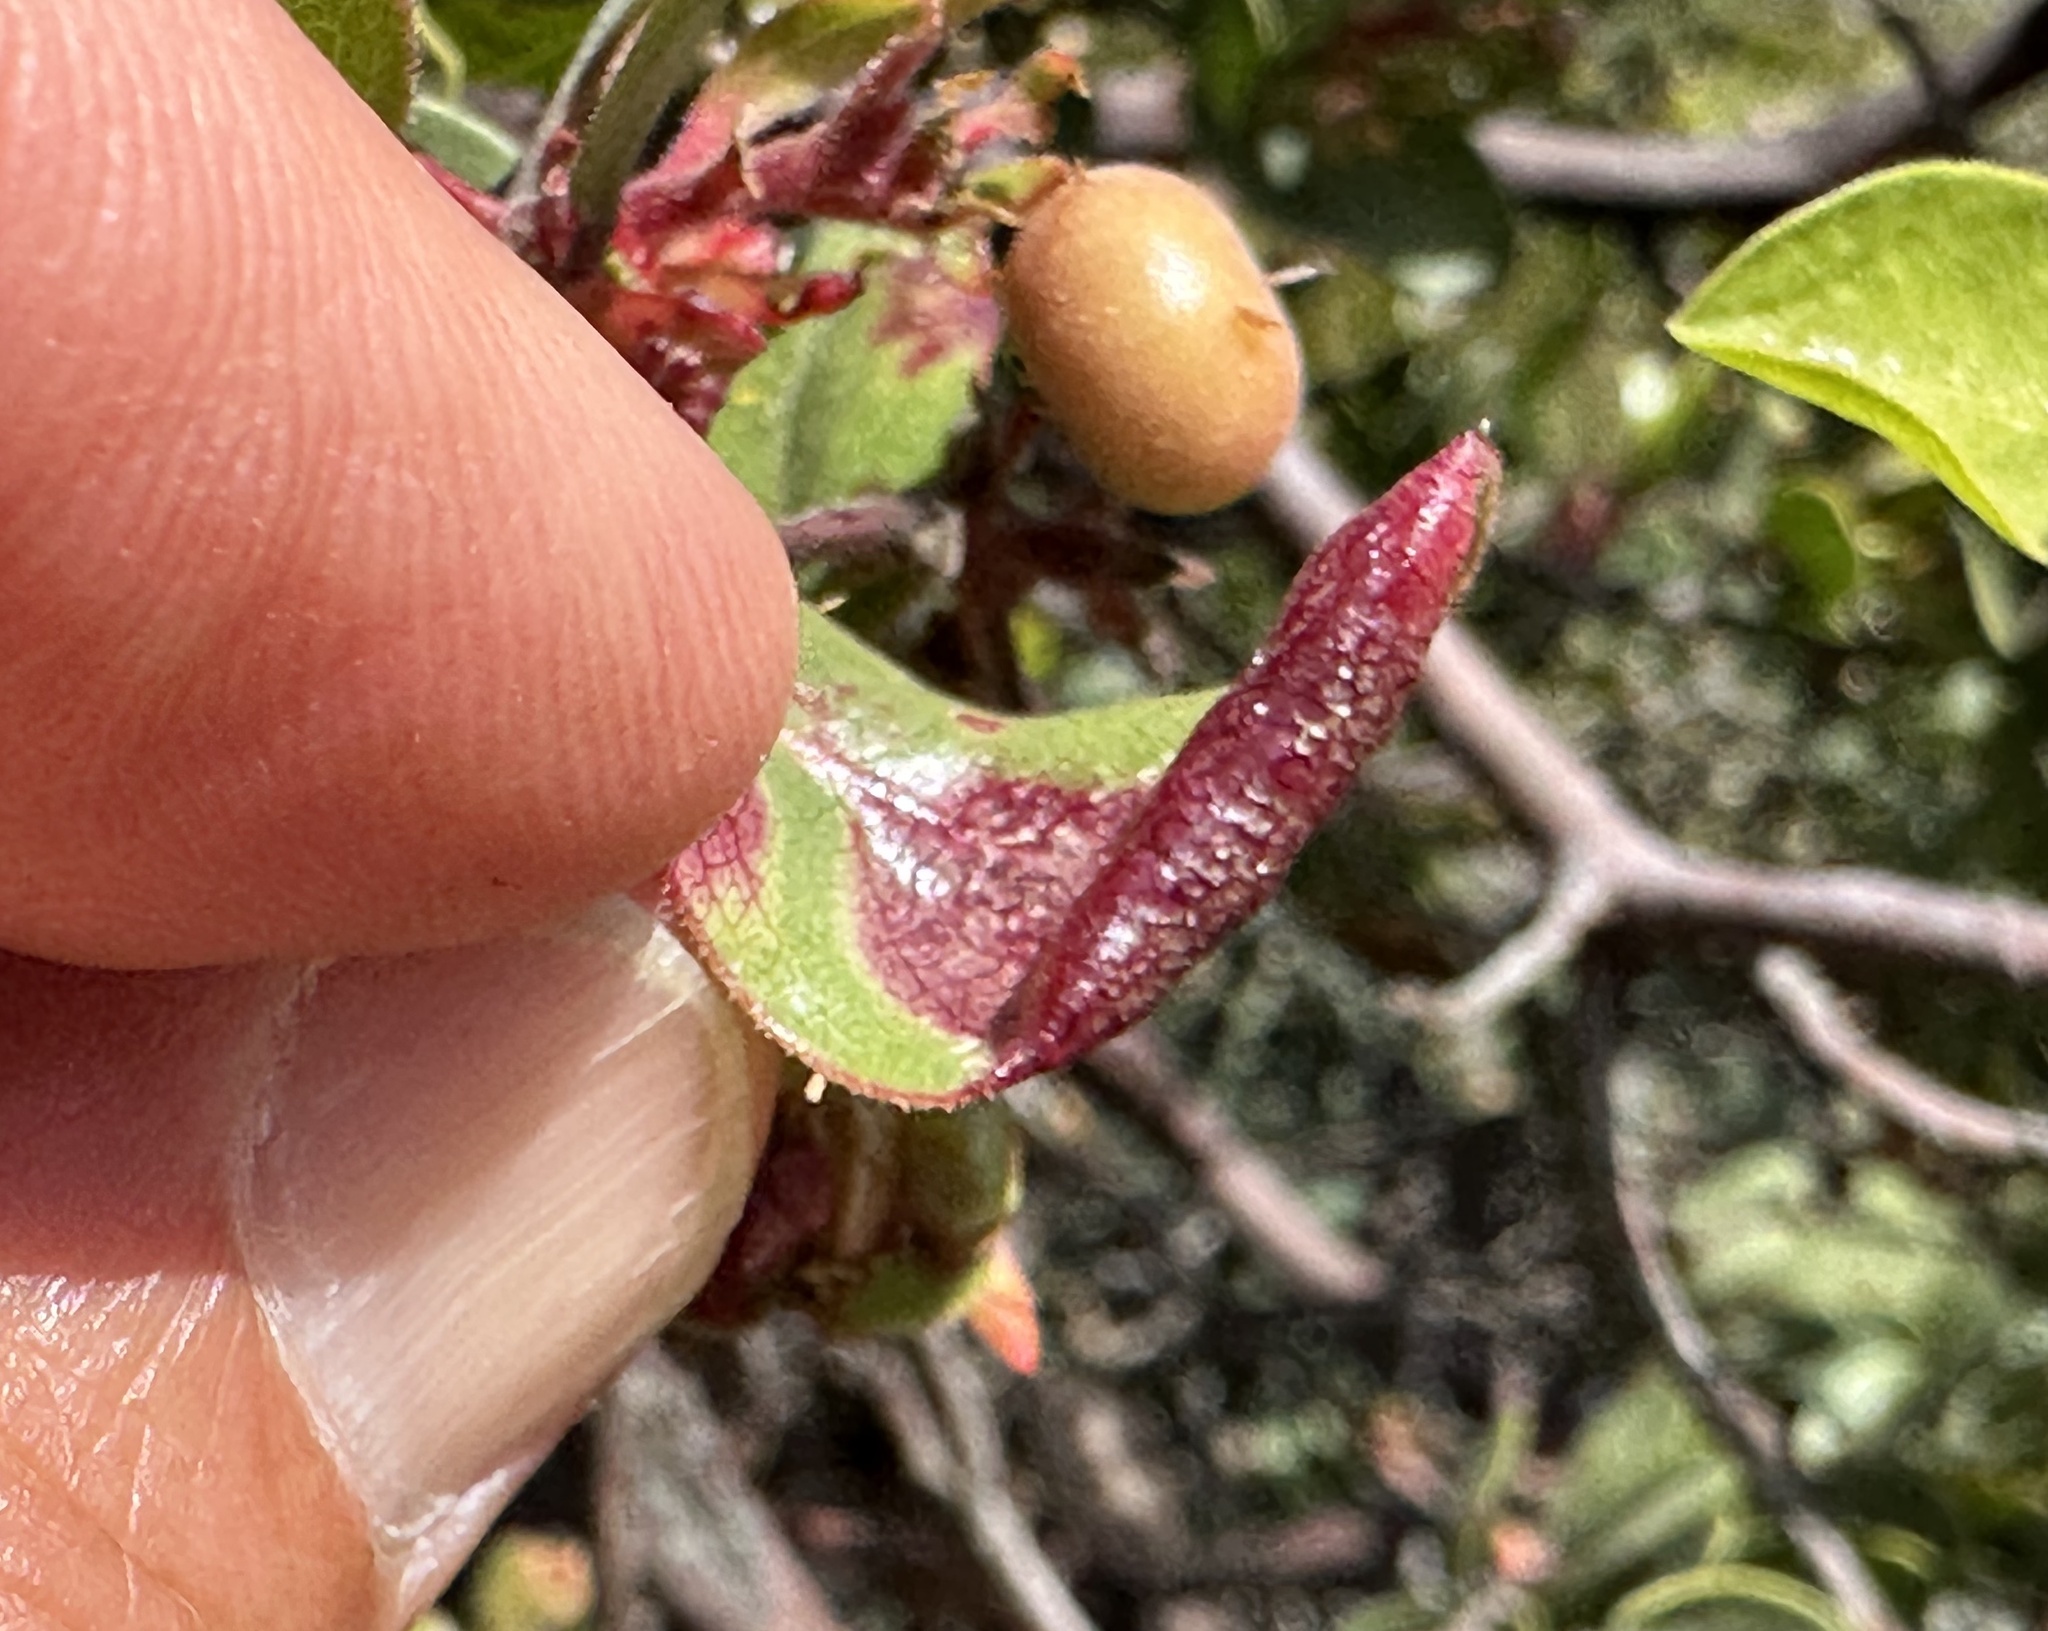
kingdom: Animalia
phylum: Arthropoda
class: Insecta
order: Hemiptera
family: Aphididae
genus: Tamalia
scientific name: Tamalia coweni
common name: Manzanita leafgall aphid
